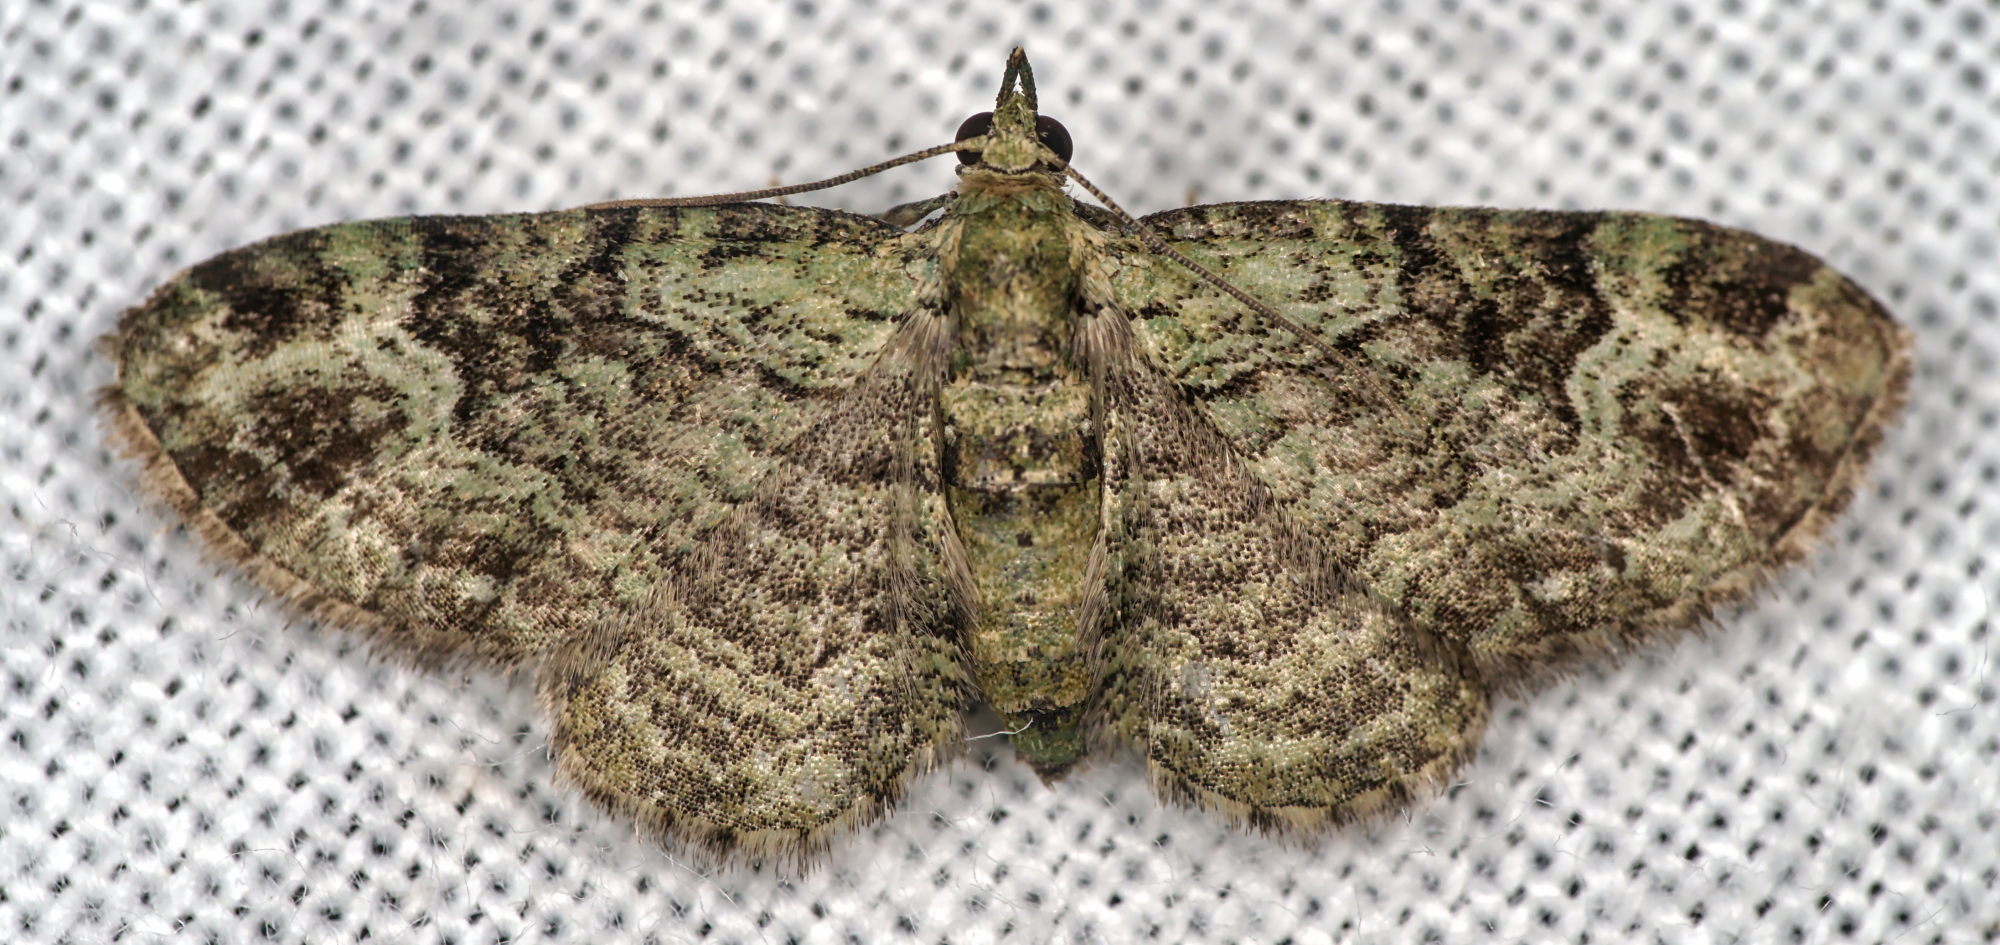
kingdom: Animalia
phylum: Arthropoda
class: Insecta
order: Lepidoptera
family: Geometridae
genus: Pasiphila
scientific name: Pasiphila rectangulata
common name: Green pug
